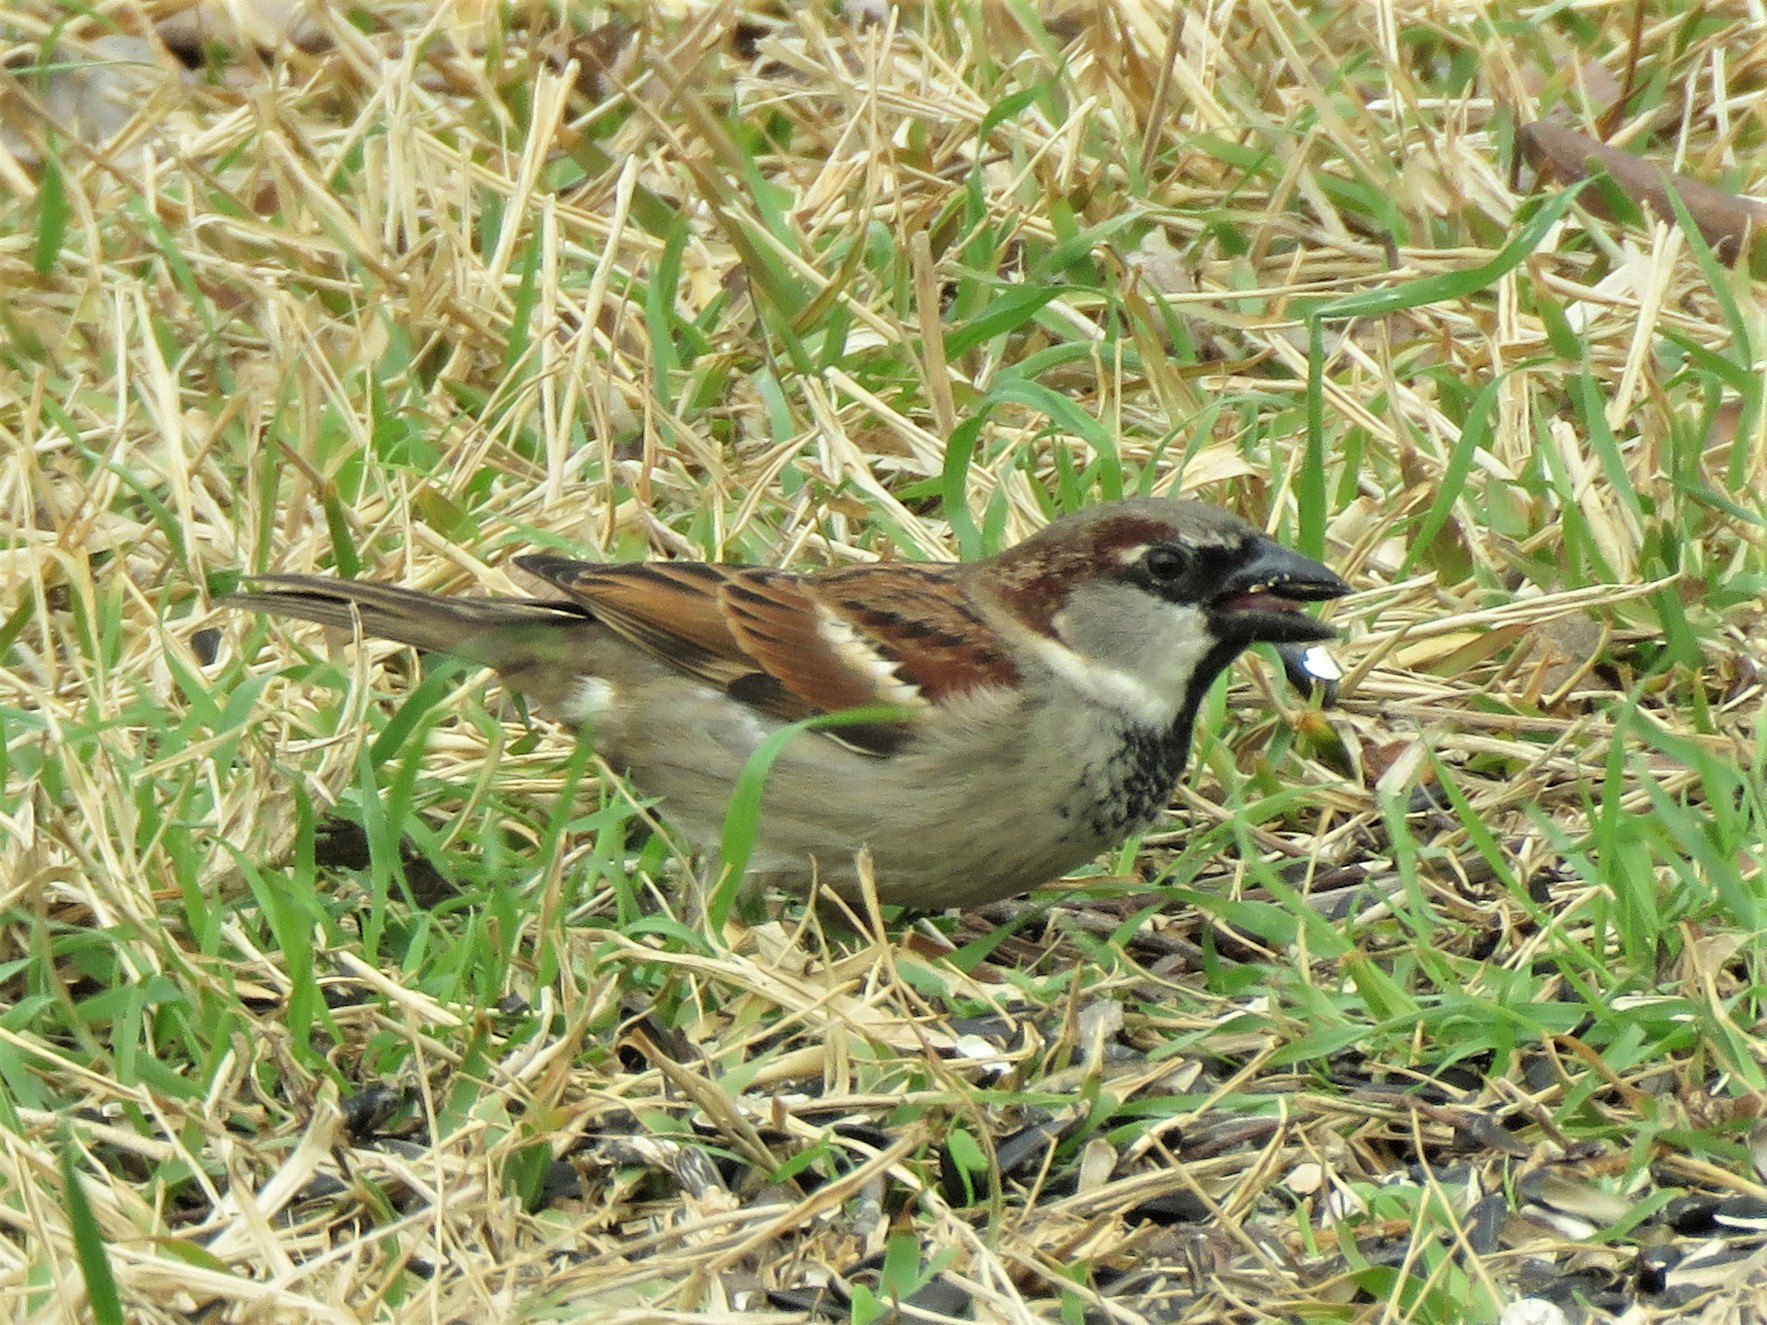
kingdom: Animalia
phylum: Chordata
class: Aves
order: Passeriformes
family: Passeridae
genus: Passer
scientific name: Passer domesticus
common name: House sparrow
